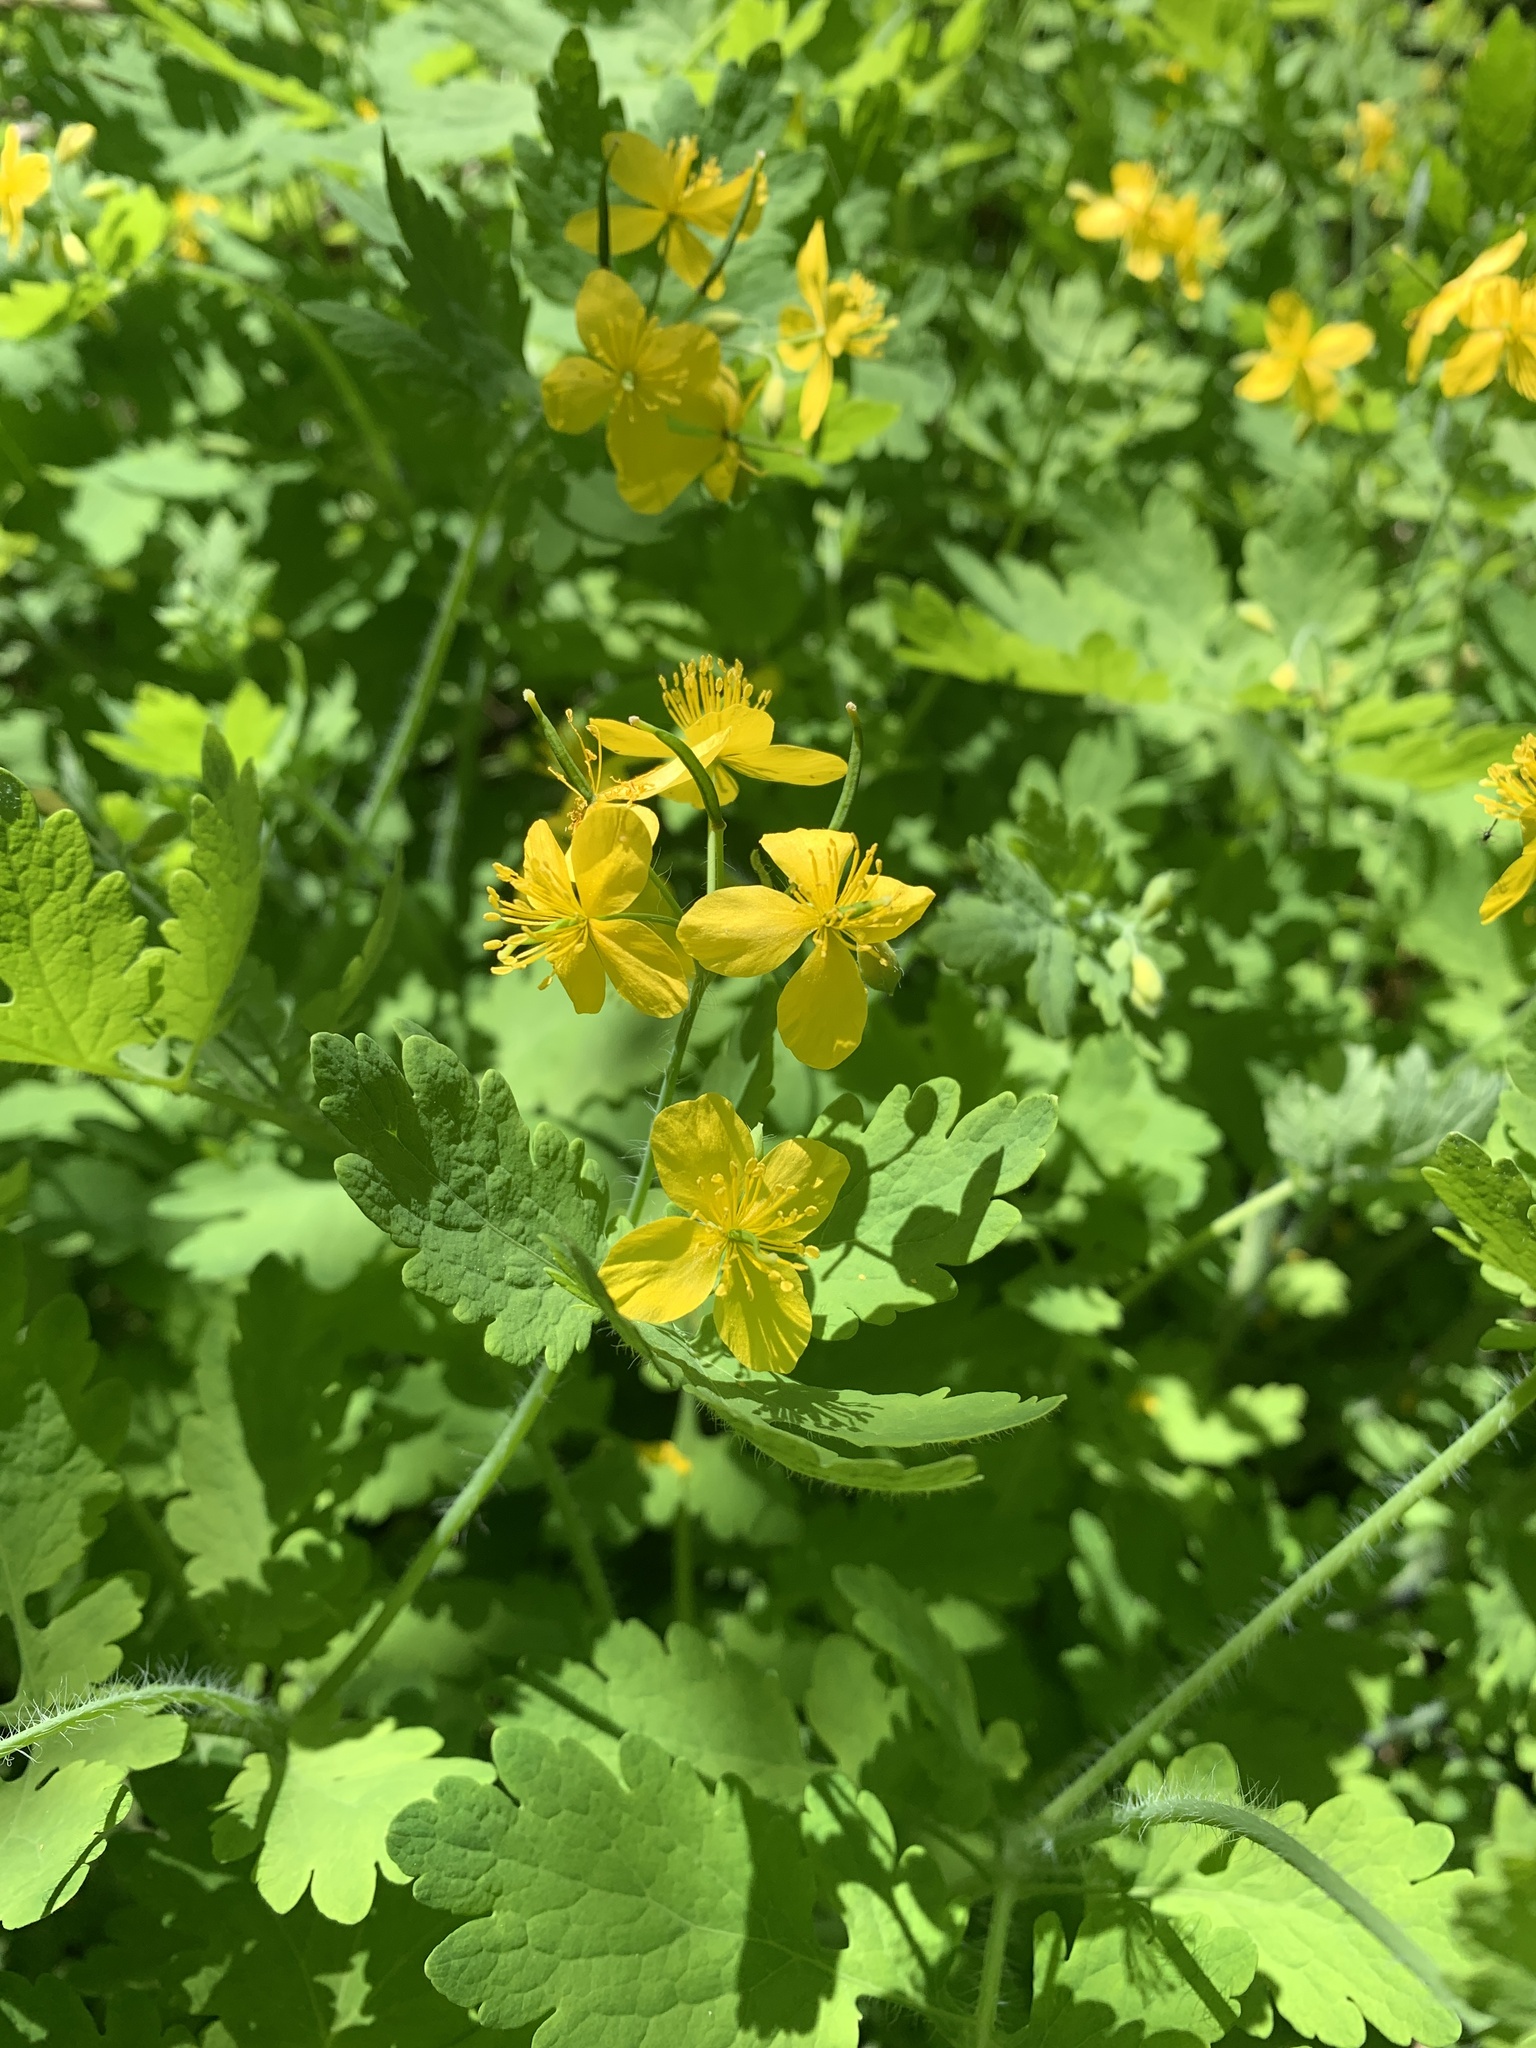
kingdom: Plantae
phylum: Tracheophyta
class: Magnoliopsida
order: Ranunculales
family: Papaveraceae
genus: Chelidonium
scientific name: Chelidonium majus
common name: Greater celandine
